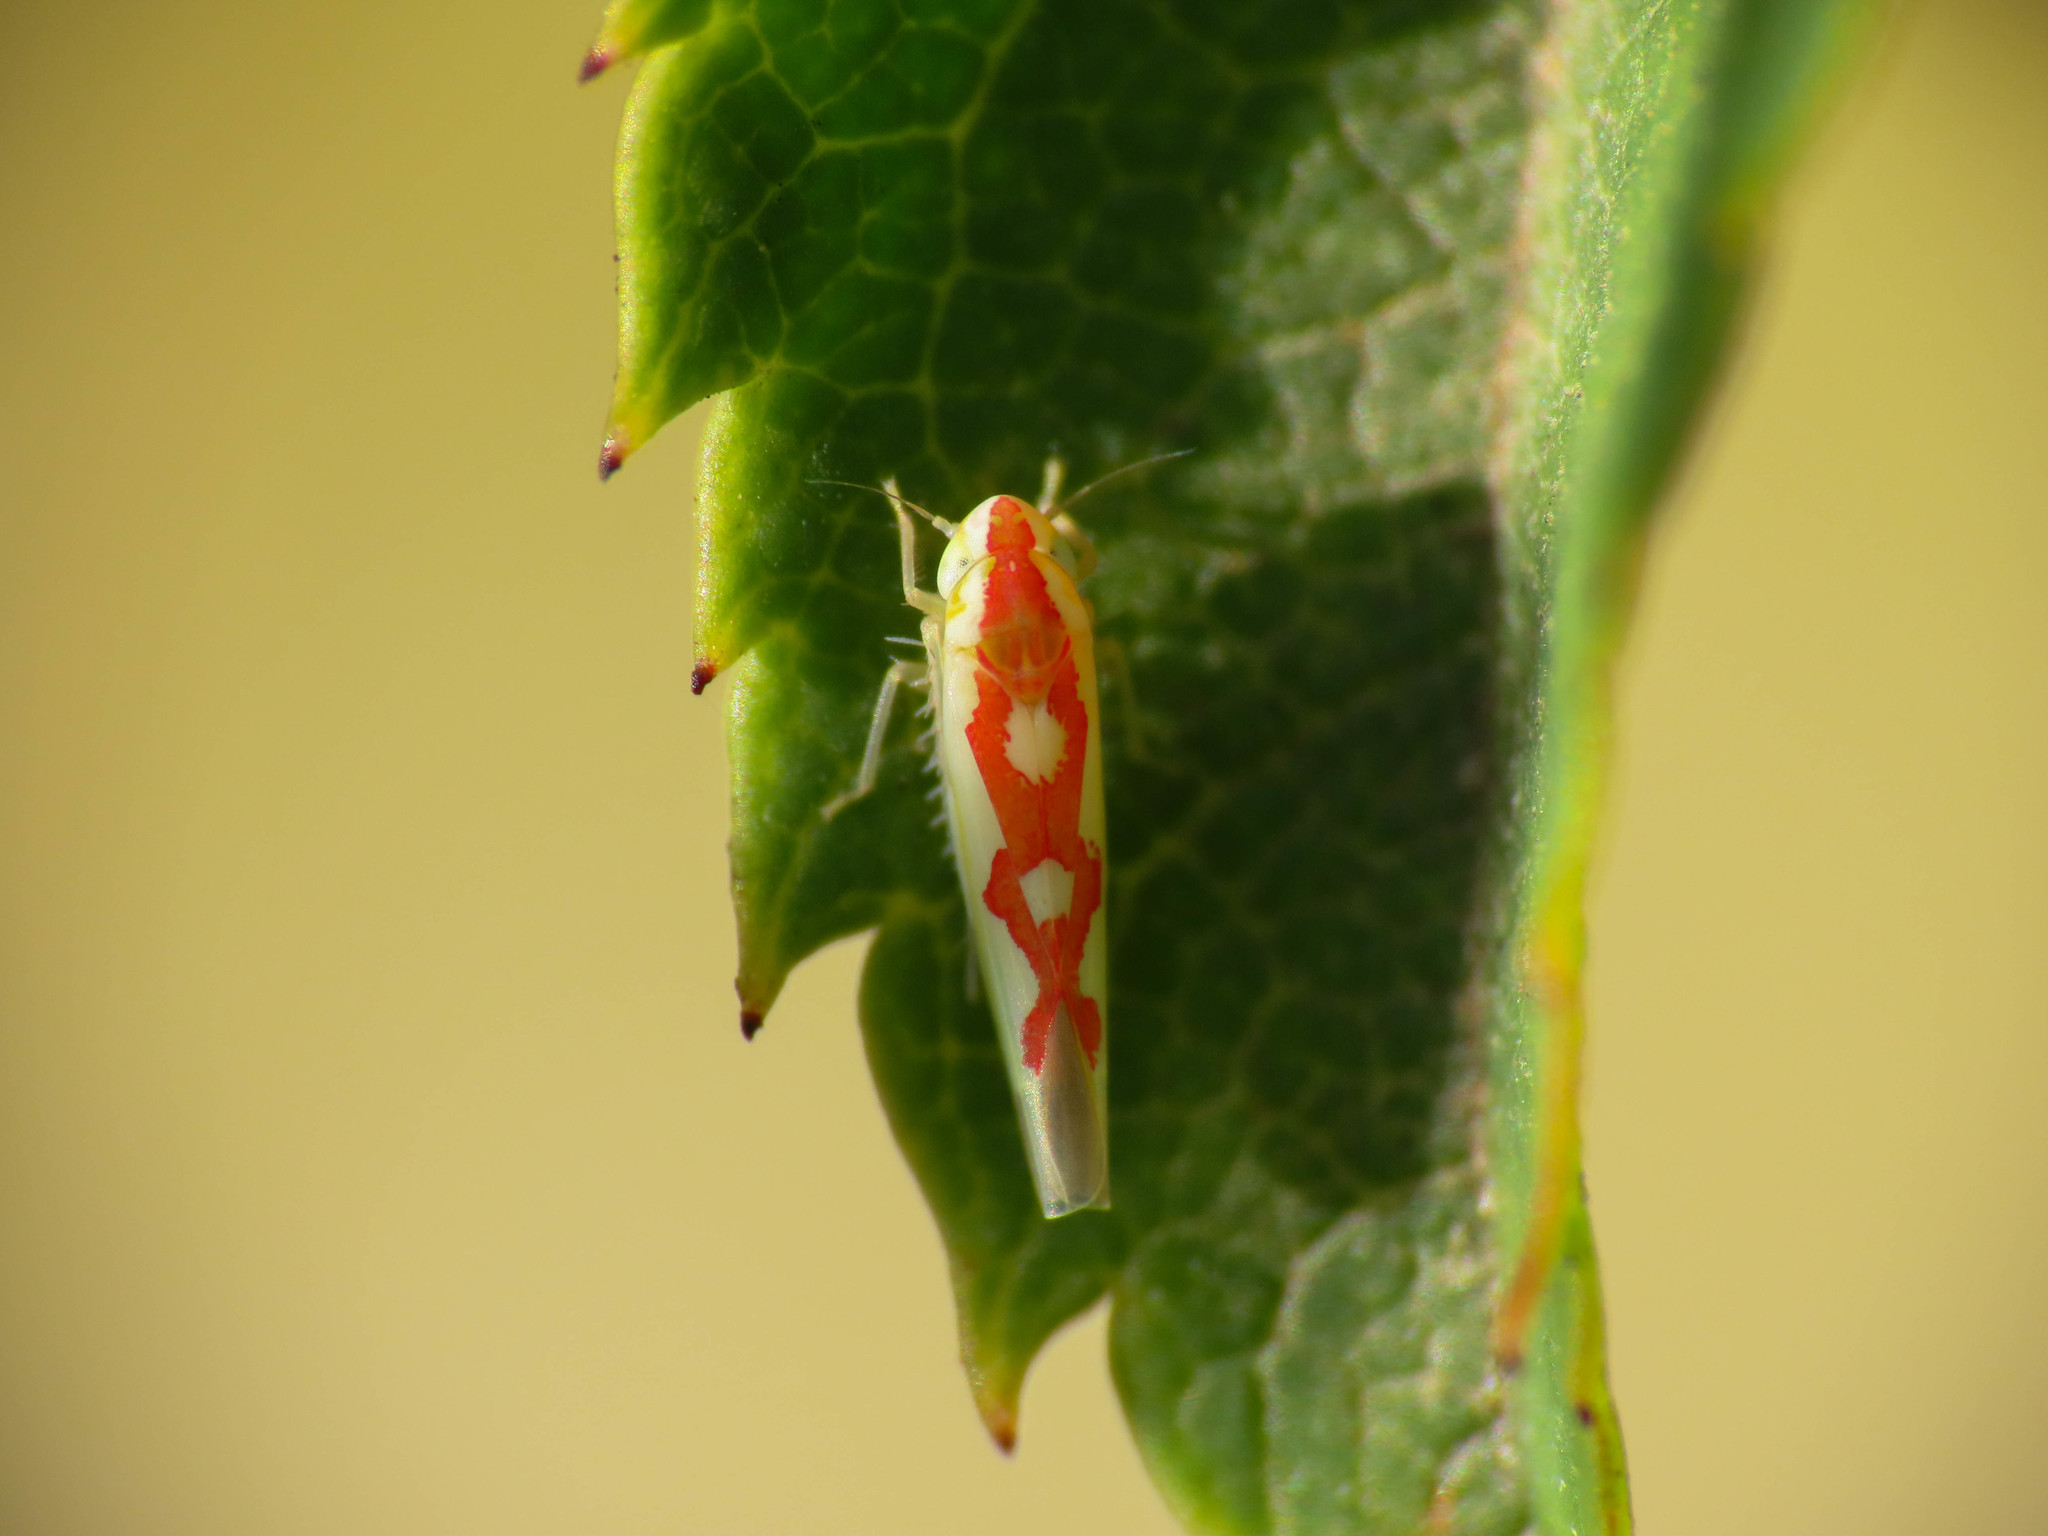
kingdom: Animalia
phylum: Arthropoda
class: Insecta
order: Hemiptera
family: Cicadellidae
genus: Zygina
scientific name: Zygina discolor
